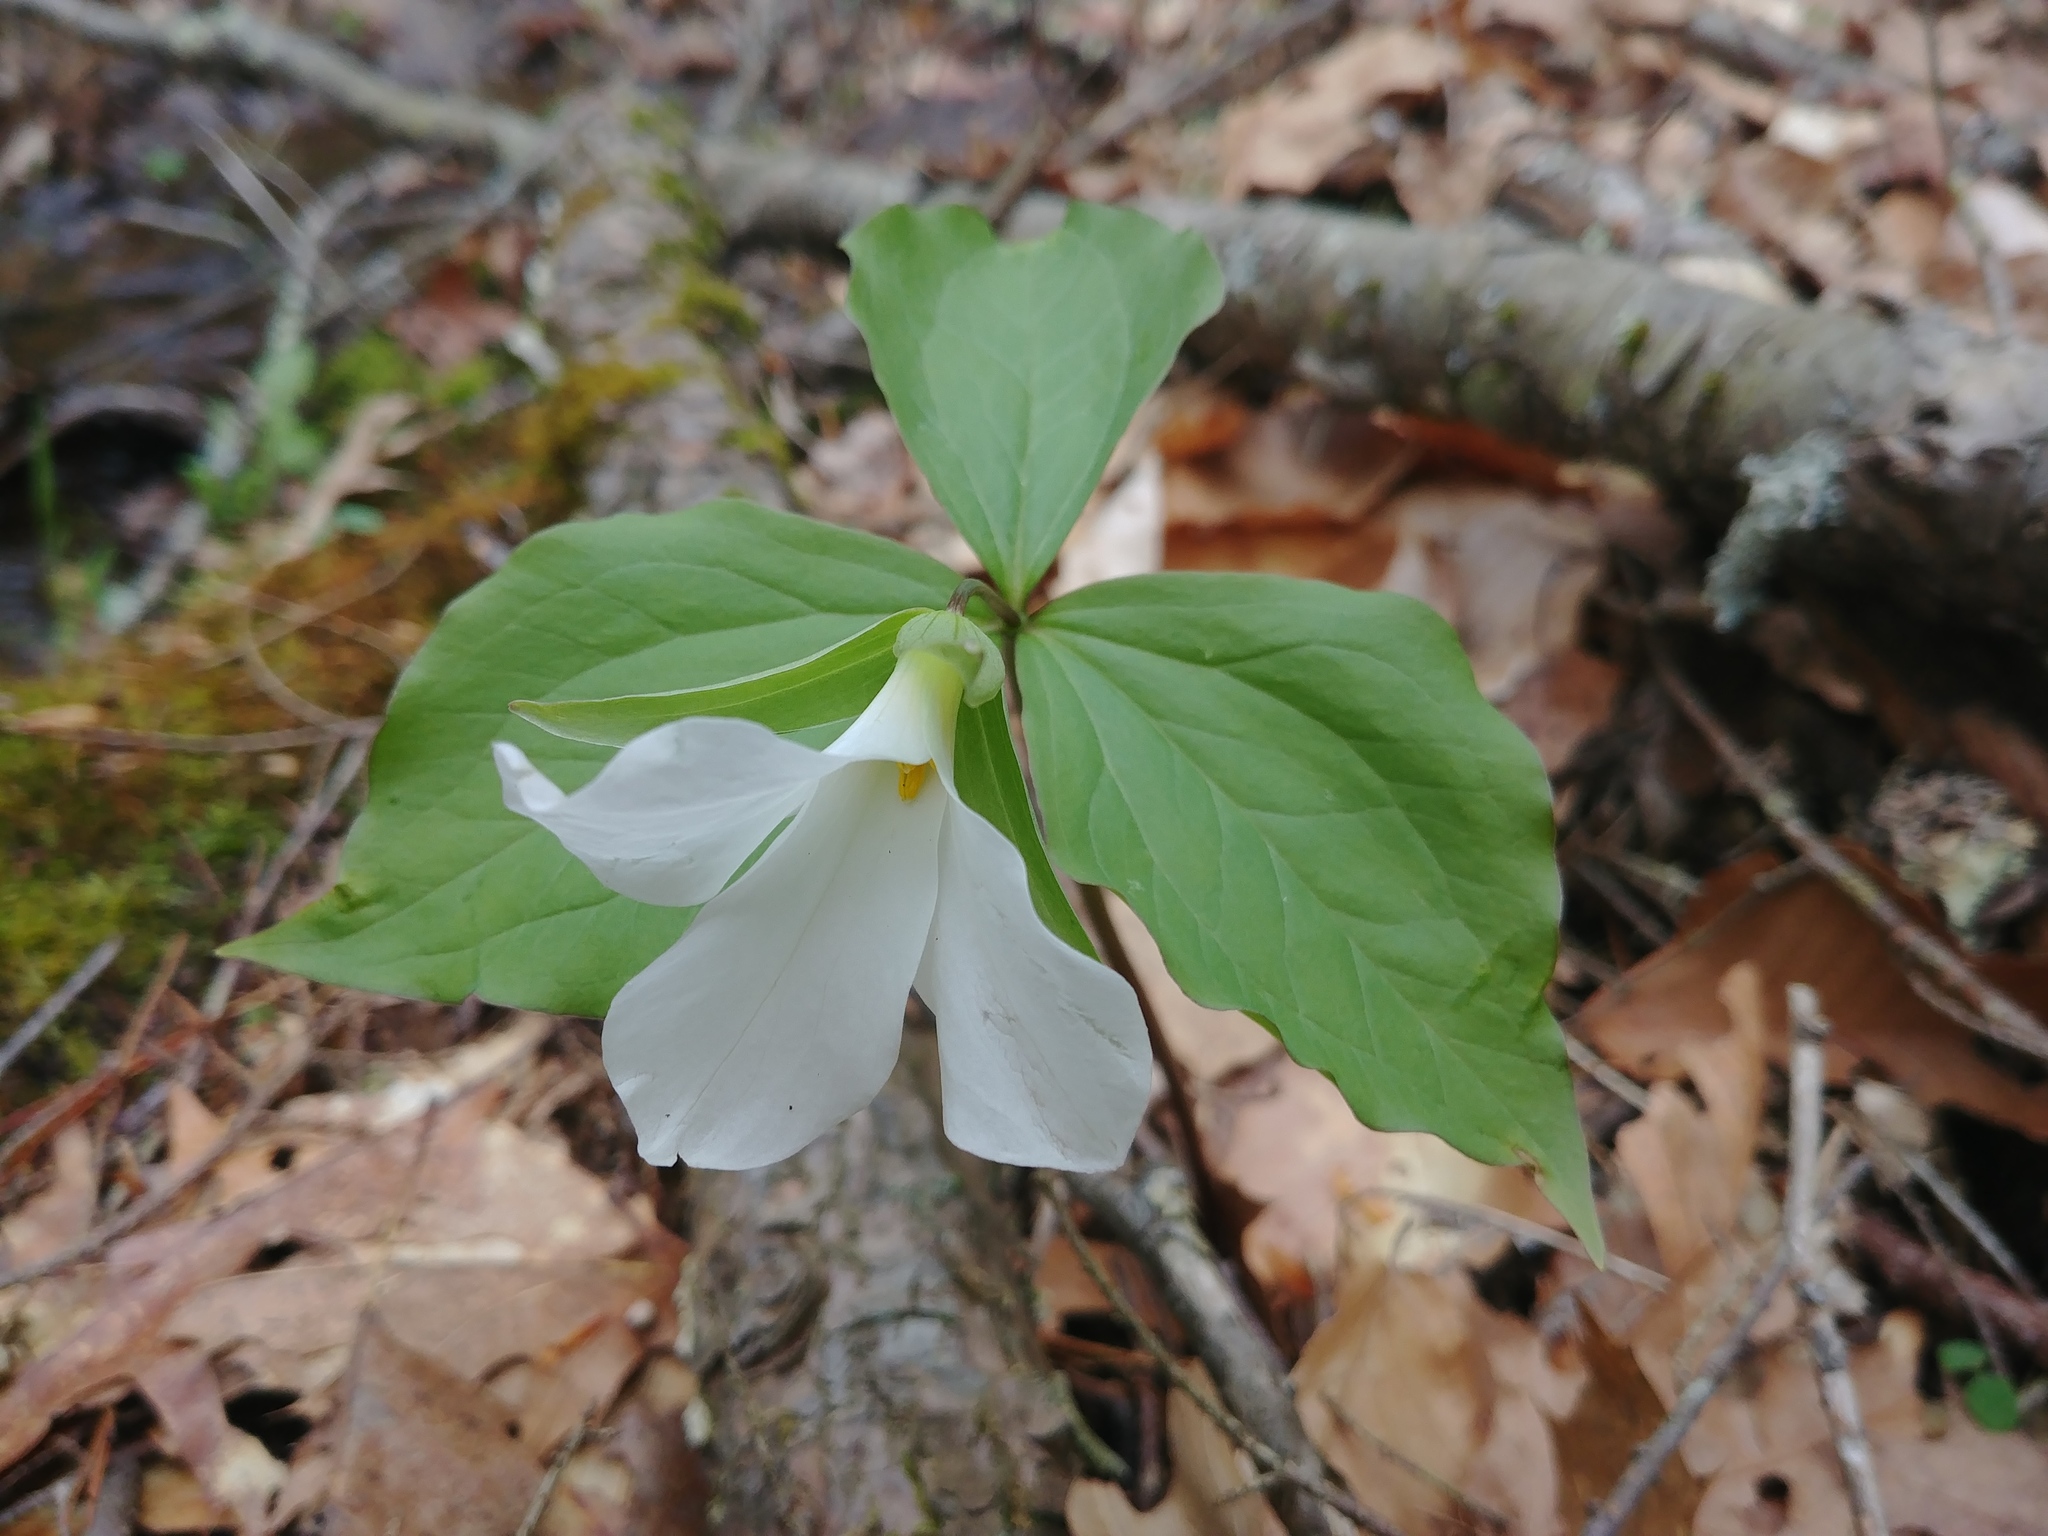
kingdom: Plantae
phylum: Tracheophyta
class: Liliopsida
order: Liliales
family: Melanthiaceae
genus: Trillium
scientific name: Trillium grandiflorum
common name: Great white trillium
